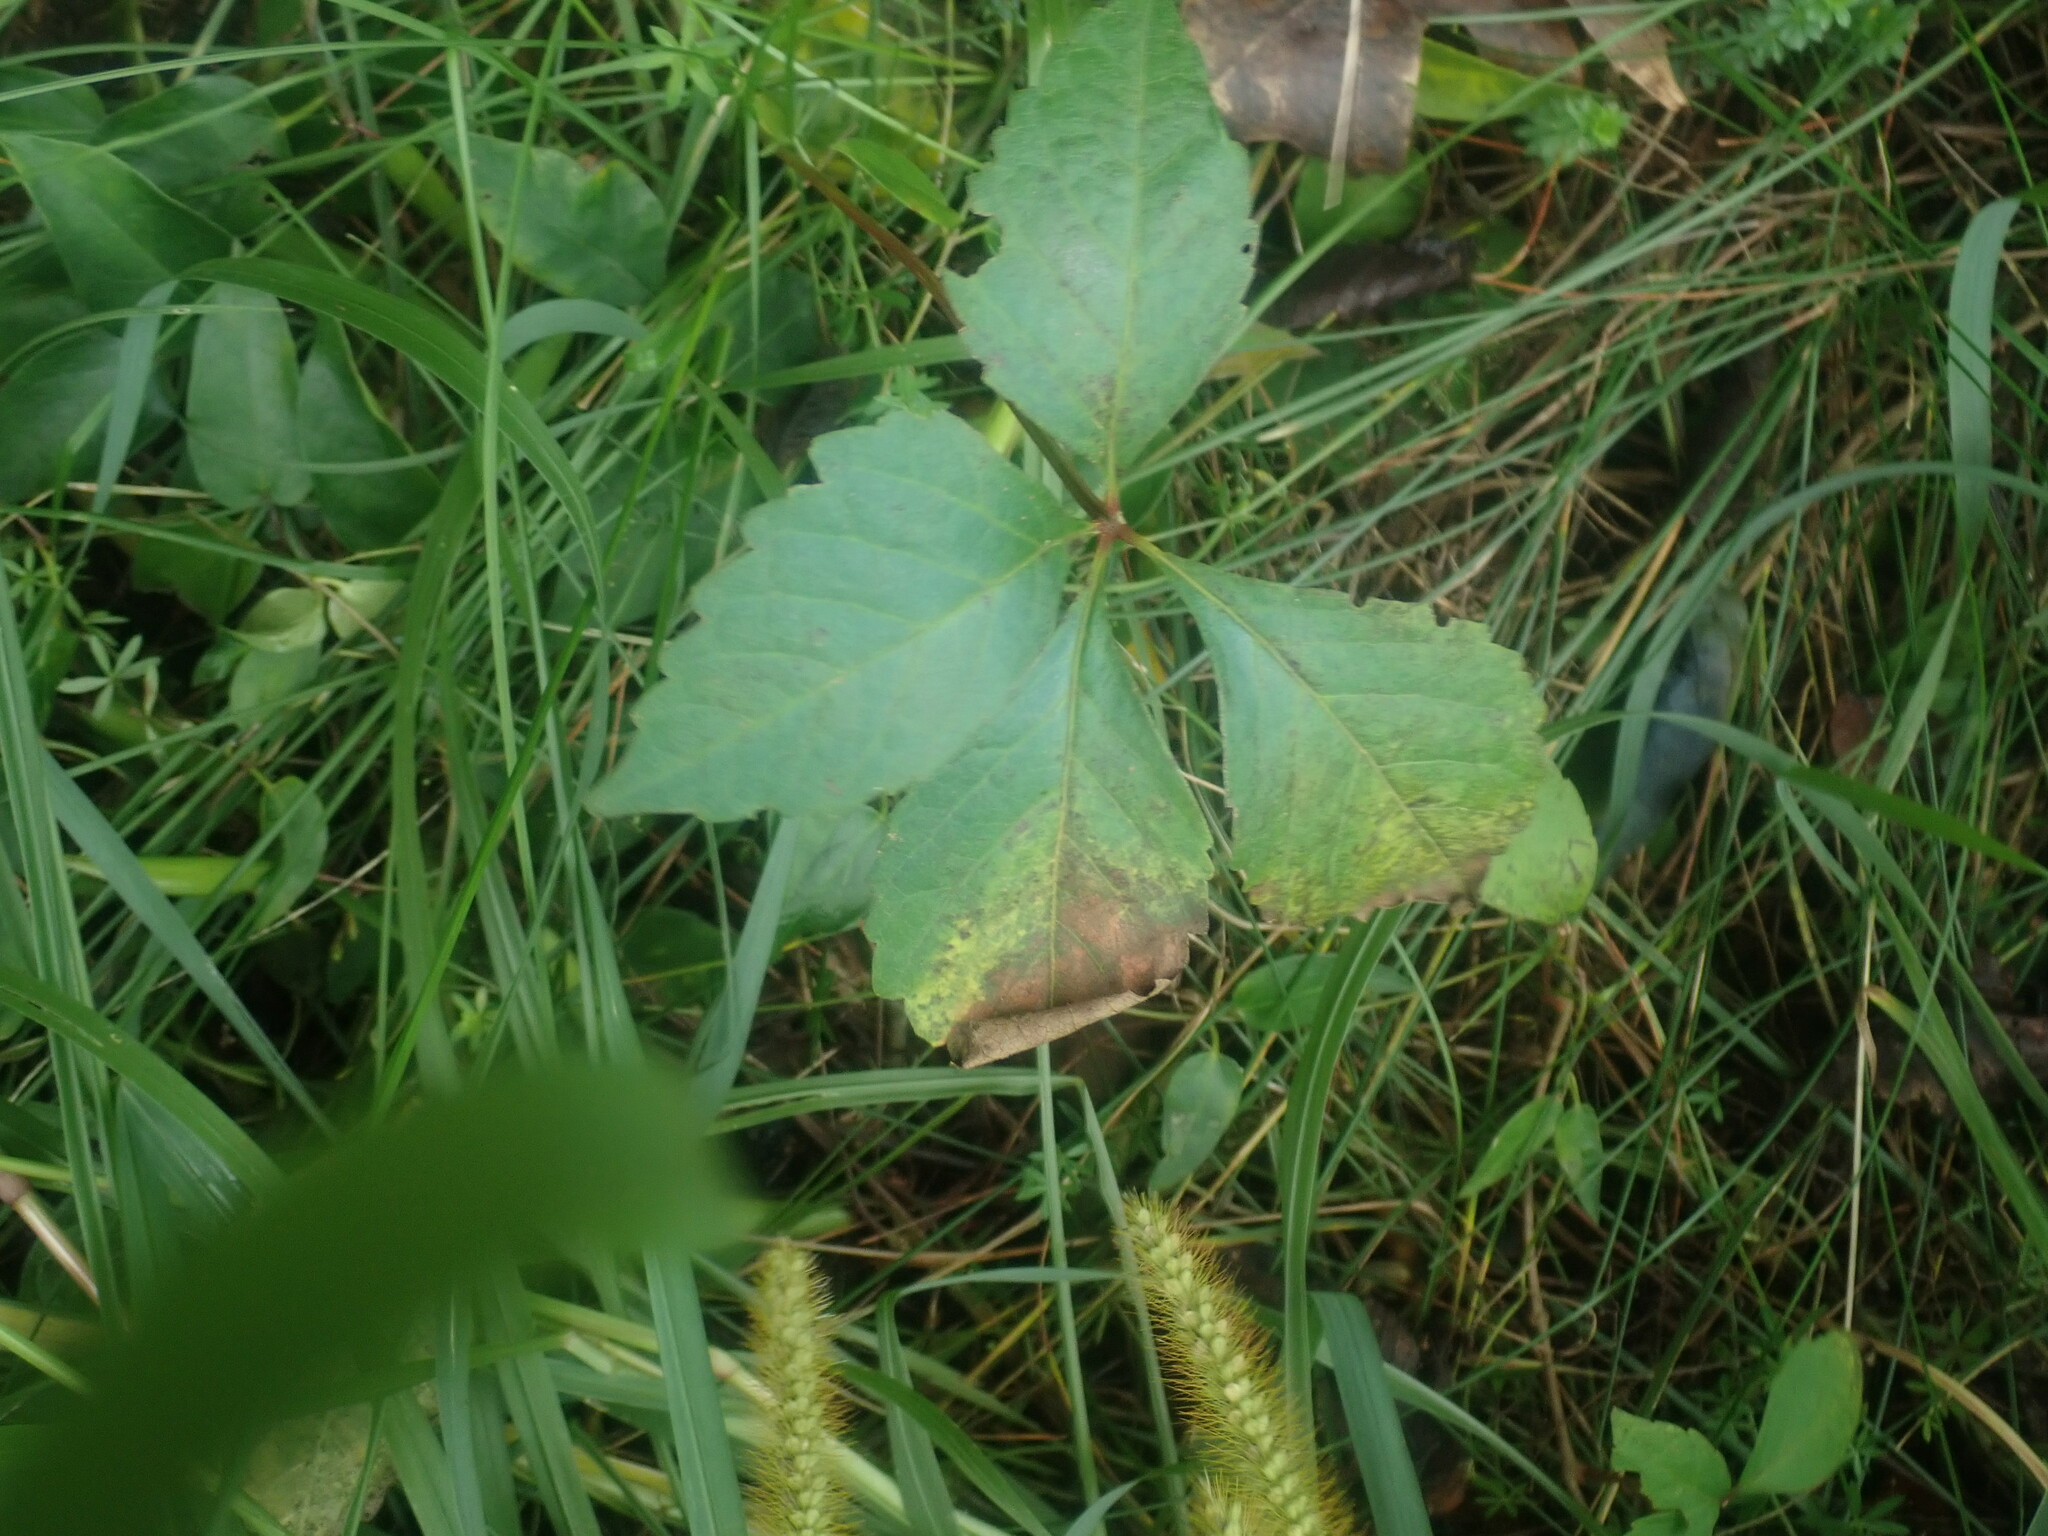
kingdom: Plantae
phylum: Tracheophyta
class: Magnoliopsida
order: Vitales
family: Vitaceae
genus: Parthenocissus
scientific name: Parthenocissus
